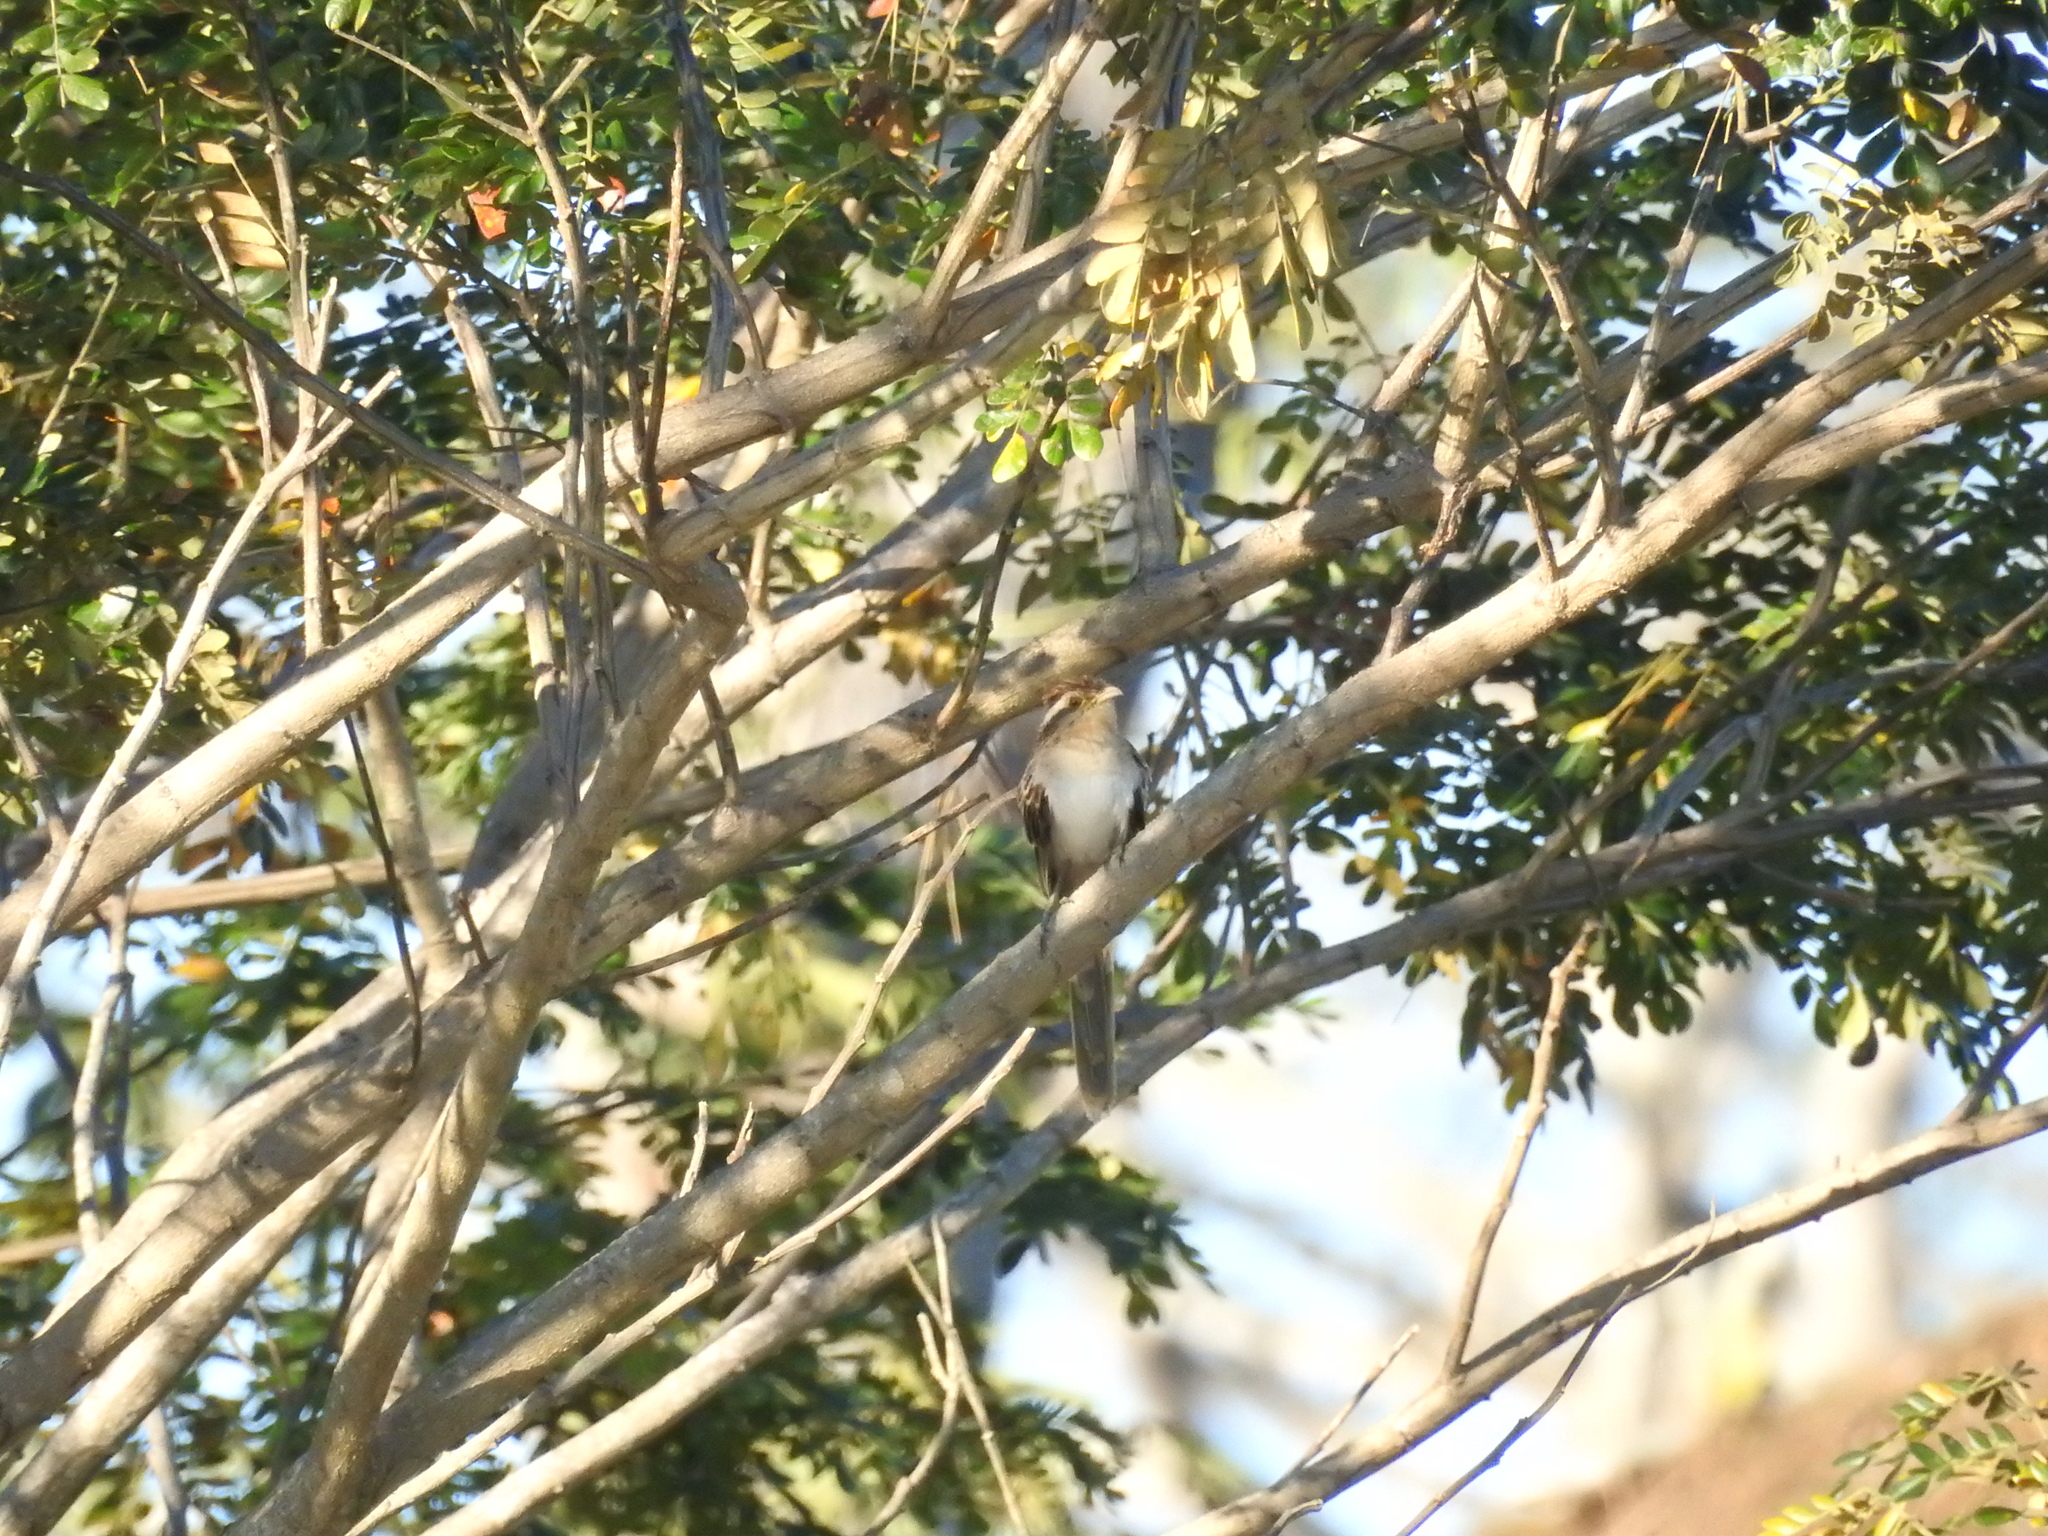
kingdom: Animalia
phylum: Chordata
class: Aves
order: Cuculiformes
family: Cuculidae
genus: Tapera
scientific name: Tapera naevia
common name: Striped cuckoo
